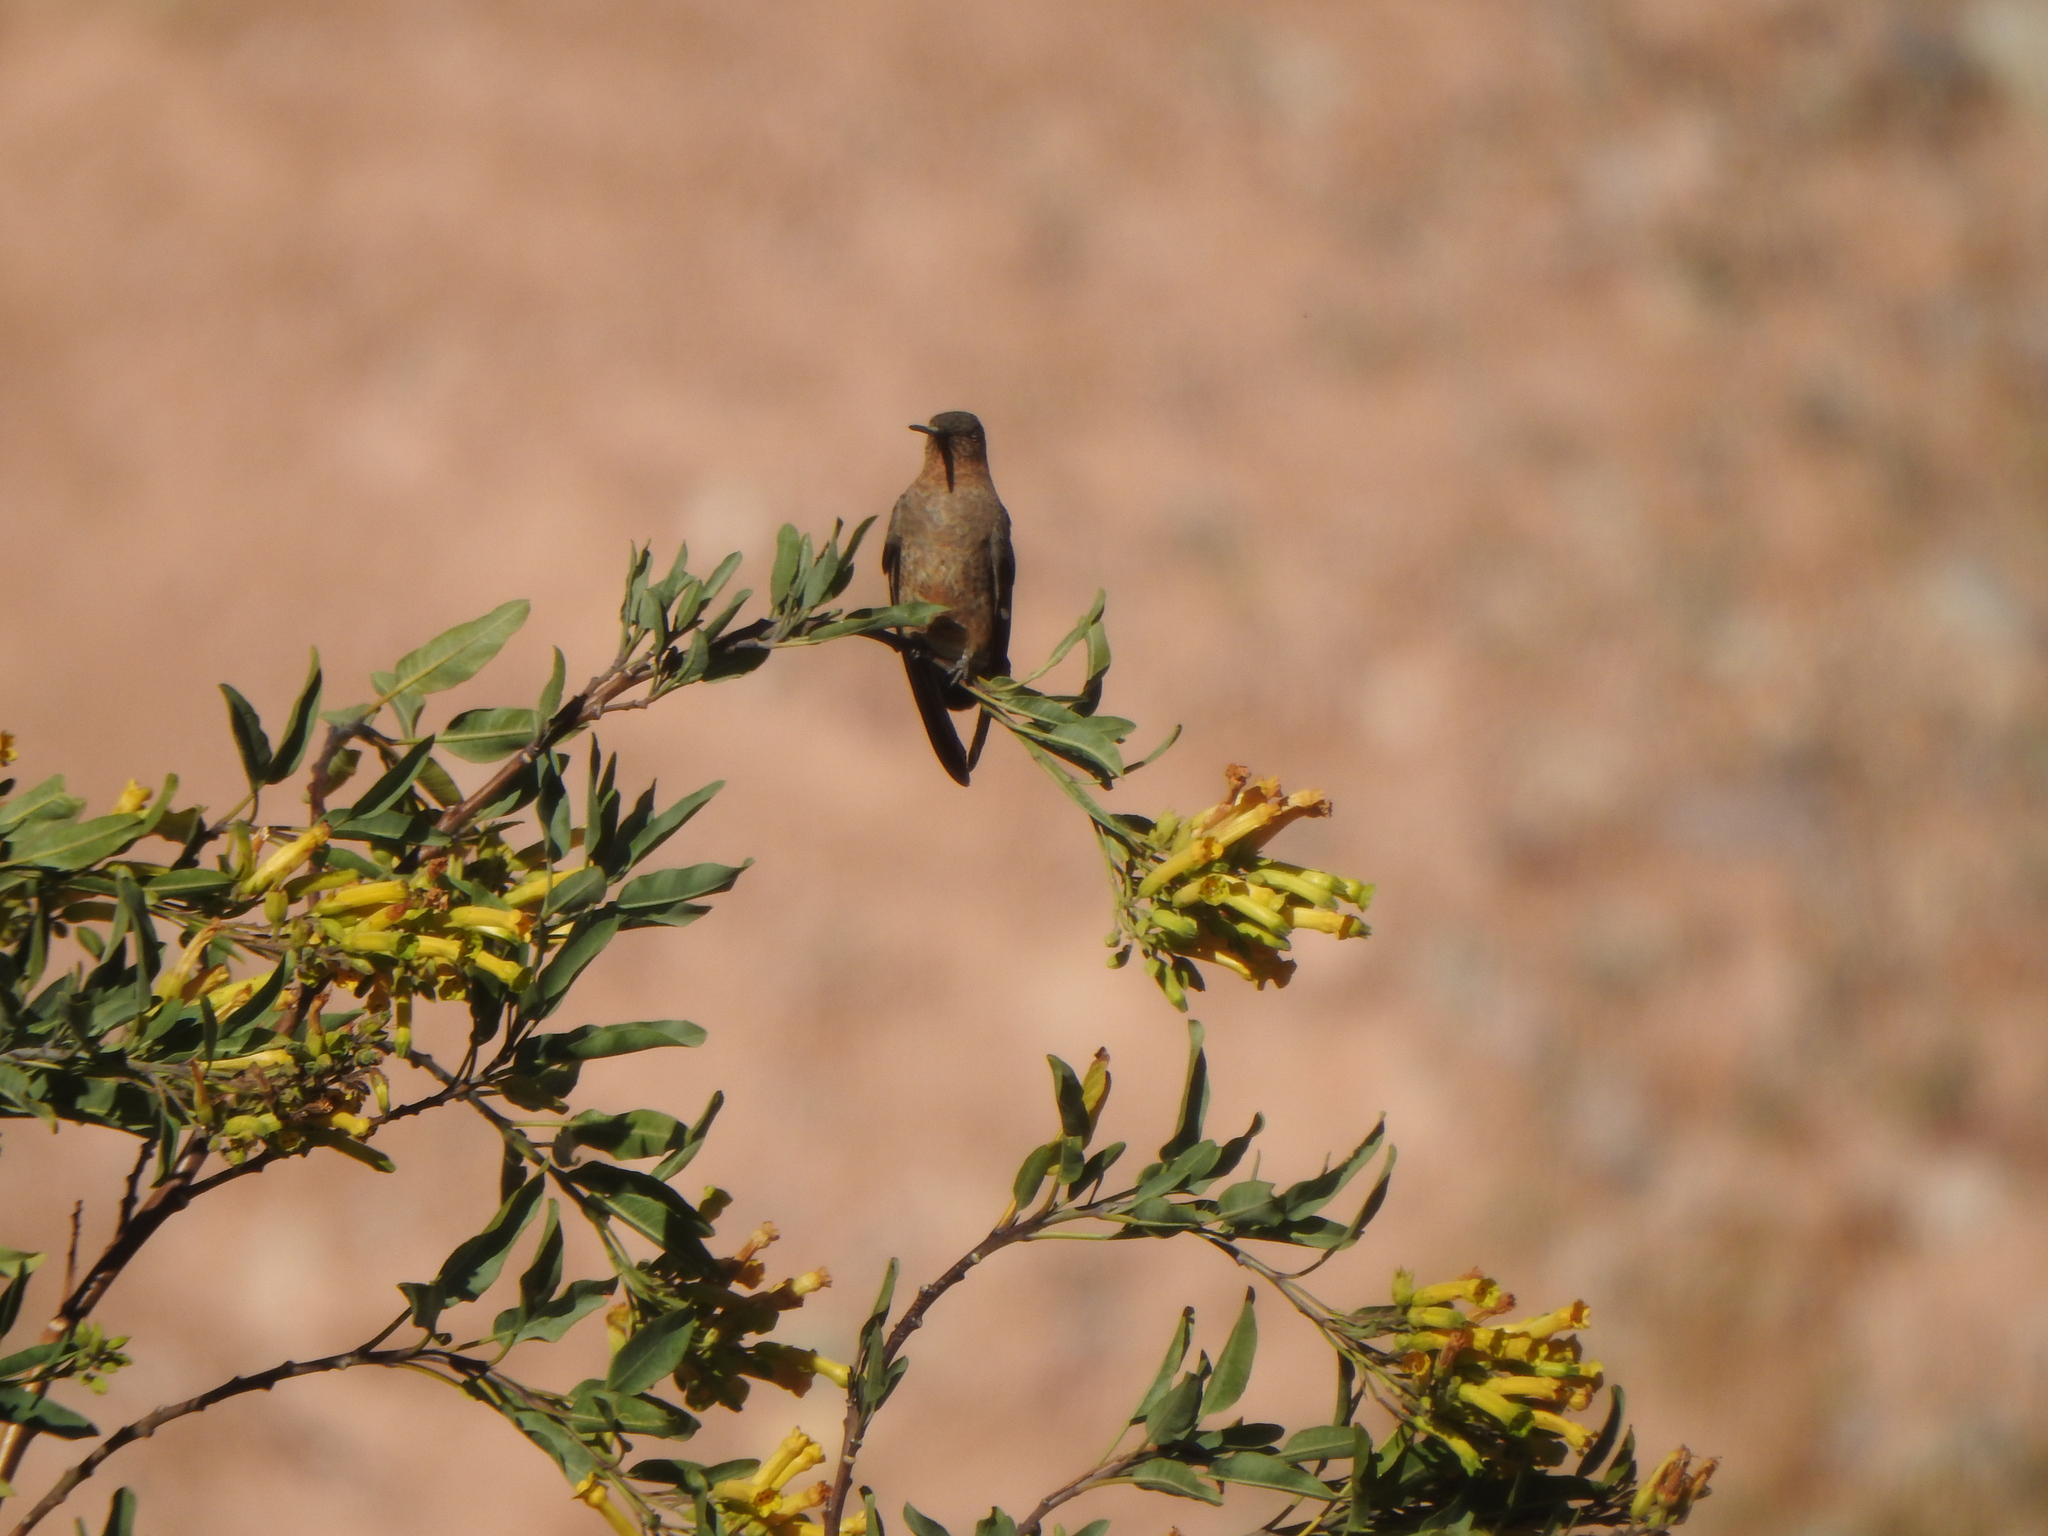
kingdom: Plantae
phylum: Tracheophyta
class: Magnoliopsida
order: Solanales
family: Solanaceae
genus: Nicotiana
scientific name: Nicotiana glauca
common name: Tree tobacco
